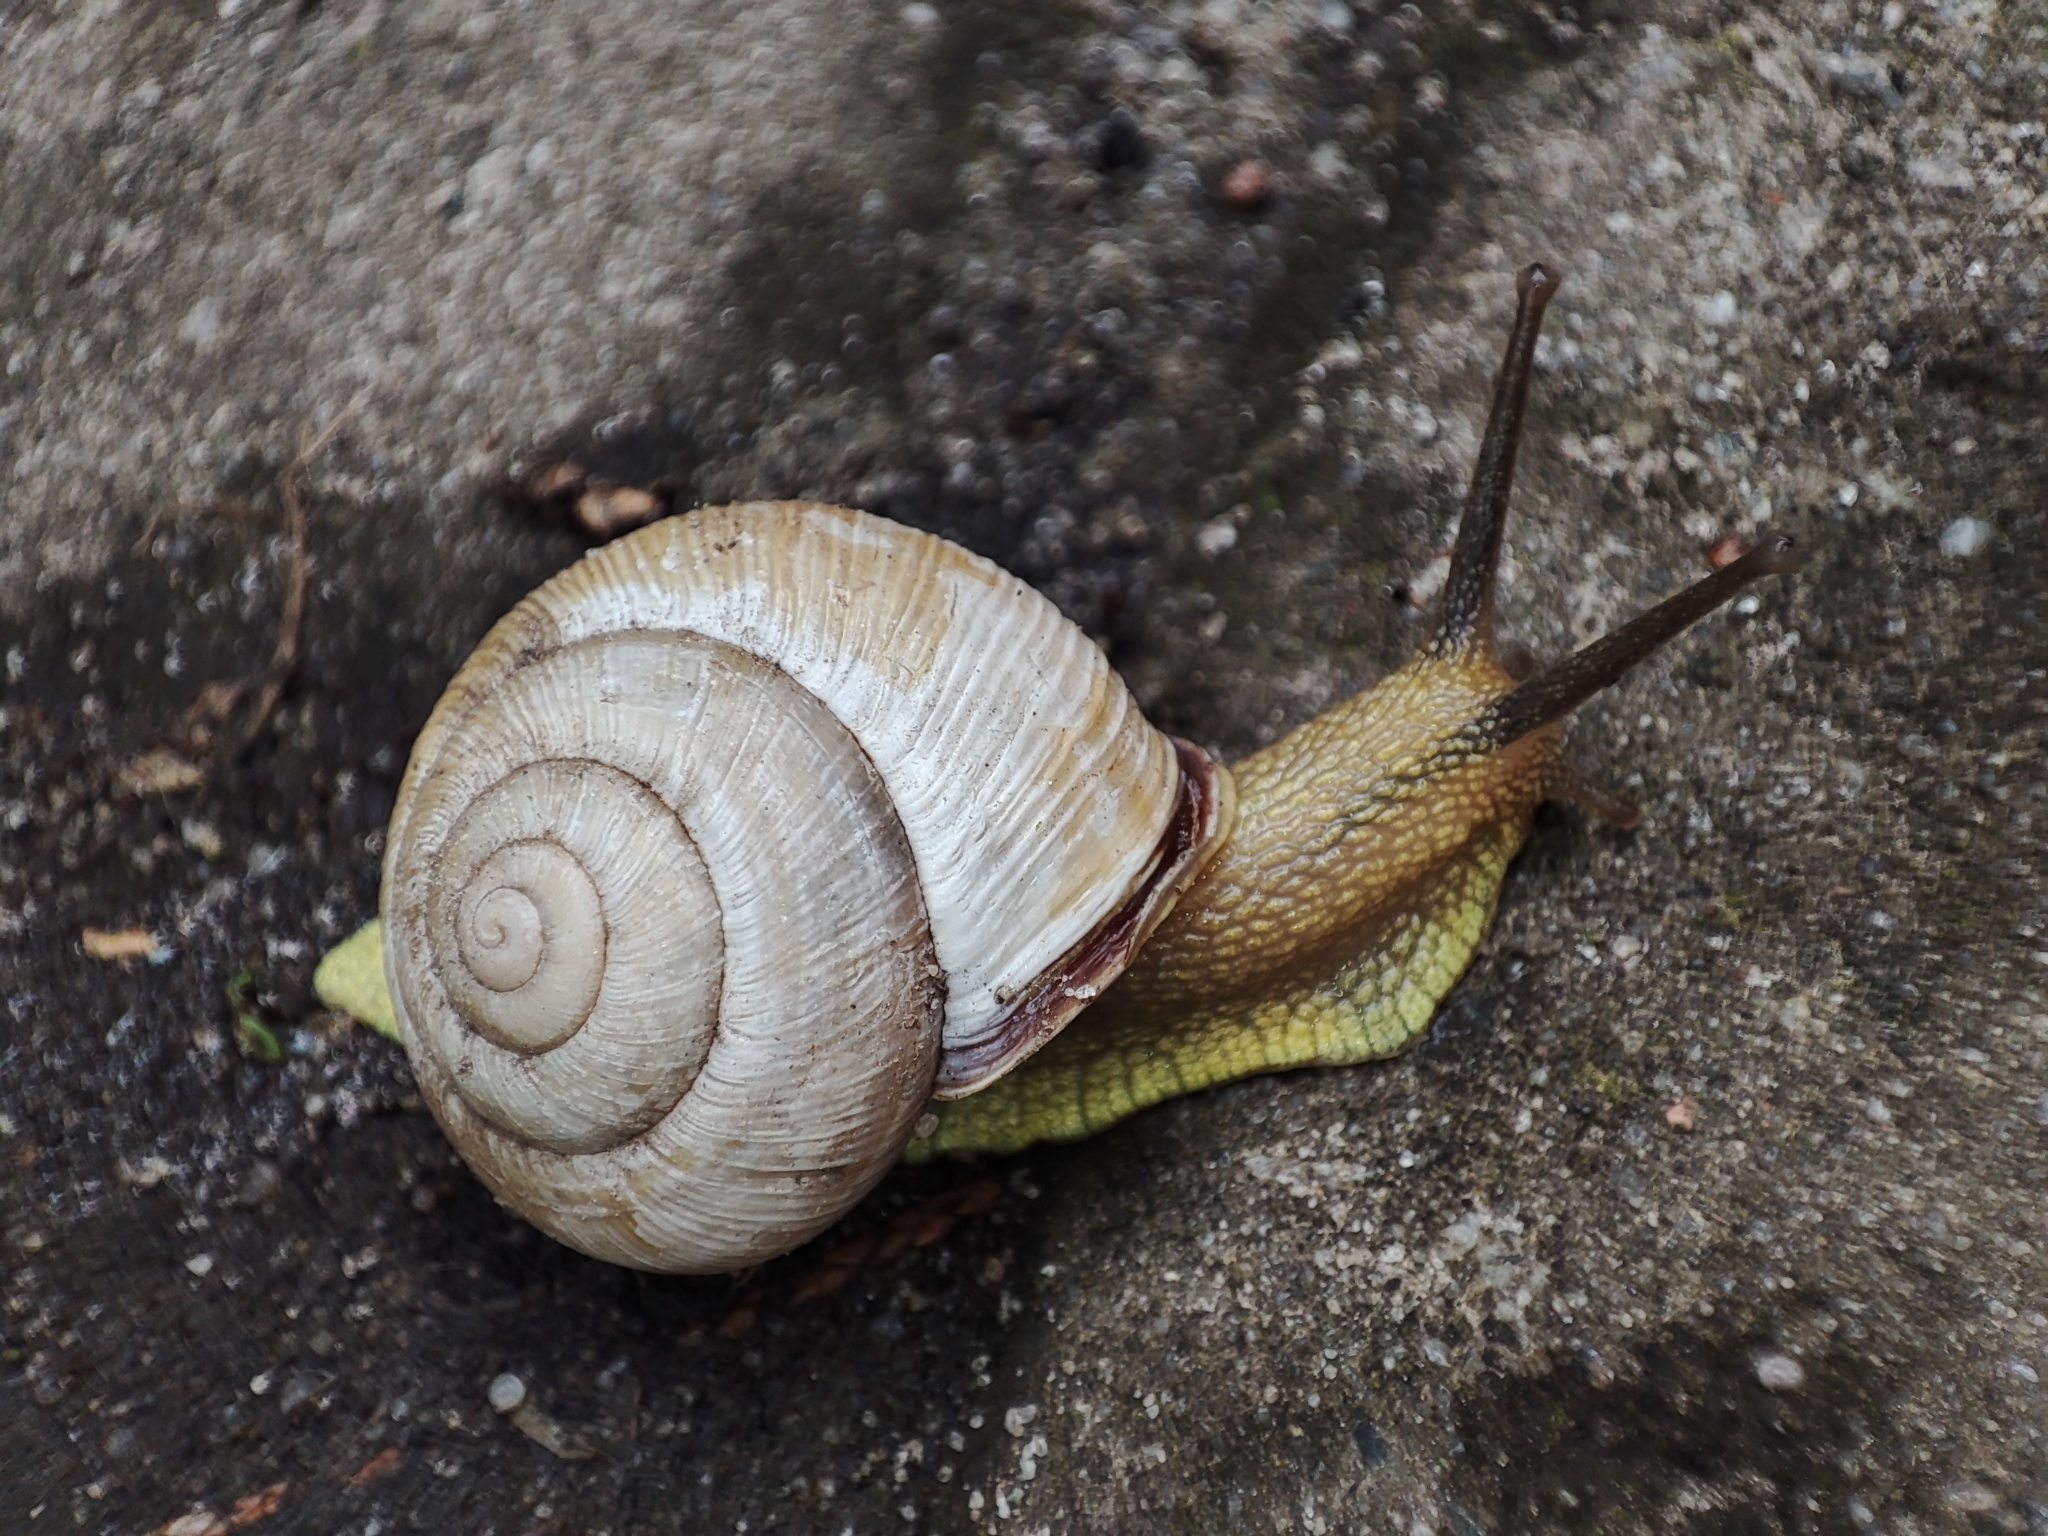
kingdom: Animalia
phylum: Mollusca
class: Gastropoda
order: Stylommatophora
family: Helicidae
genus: Caucasotachea
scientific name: Caucasotachea vindobonensis
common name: European helicid land snail
